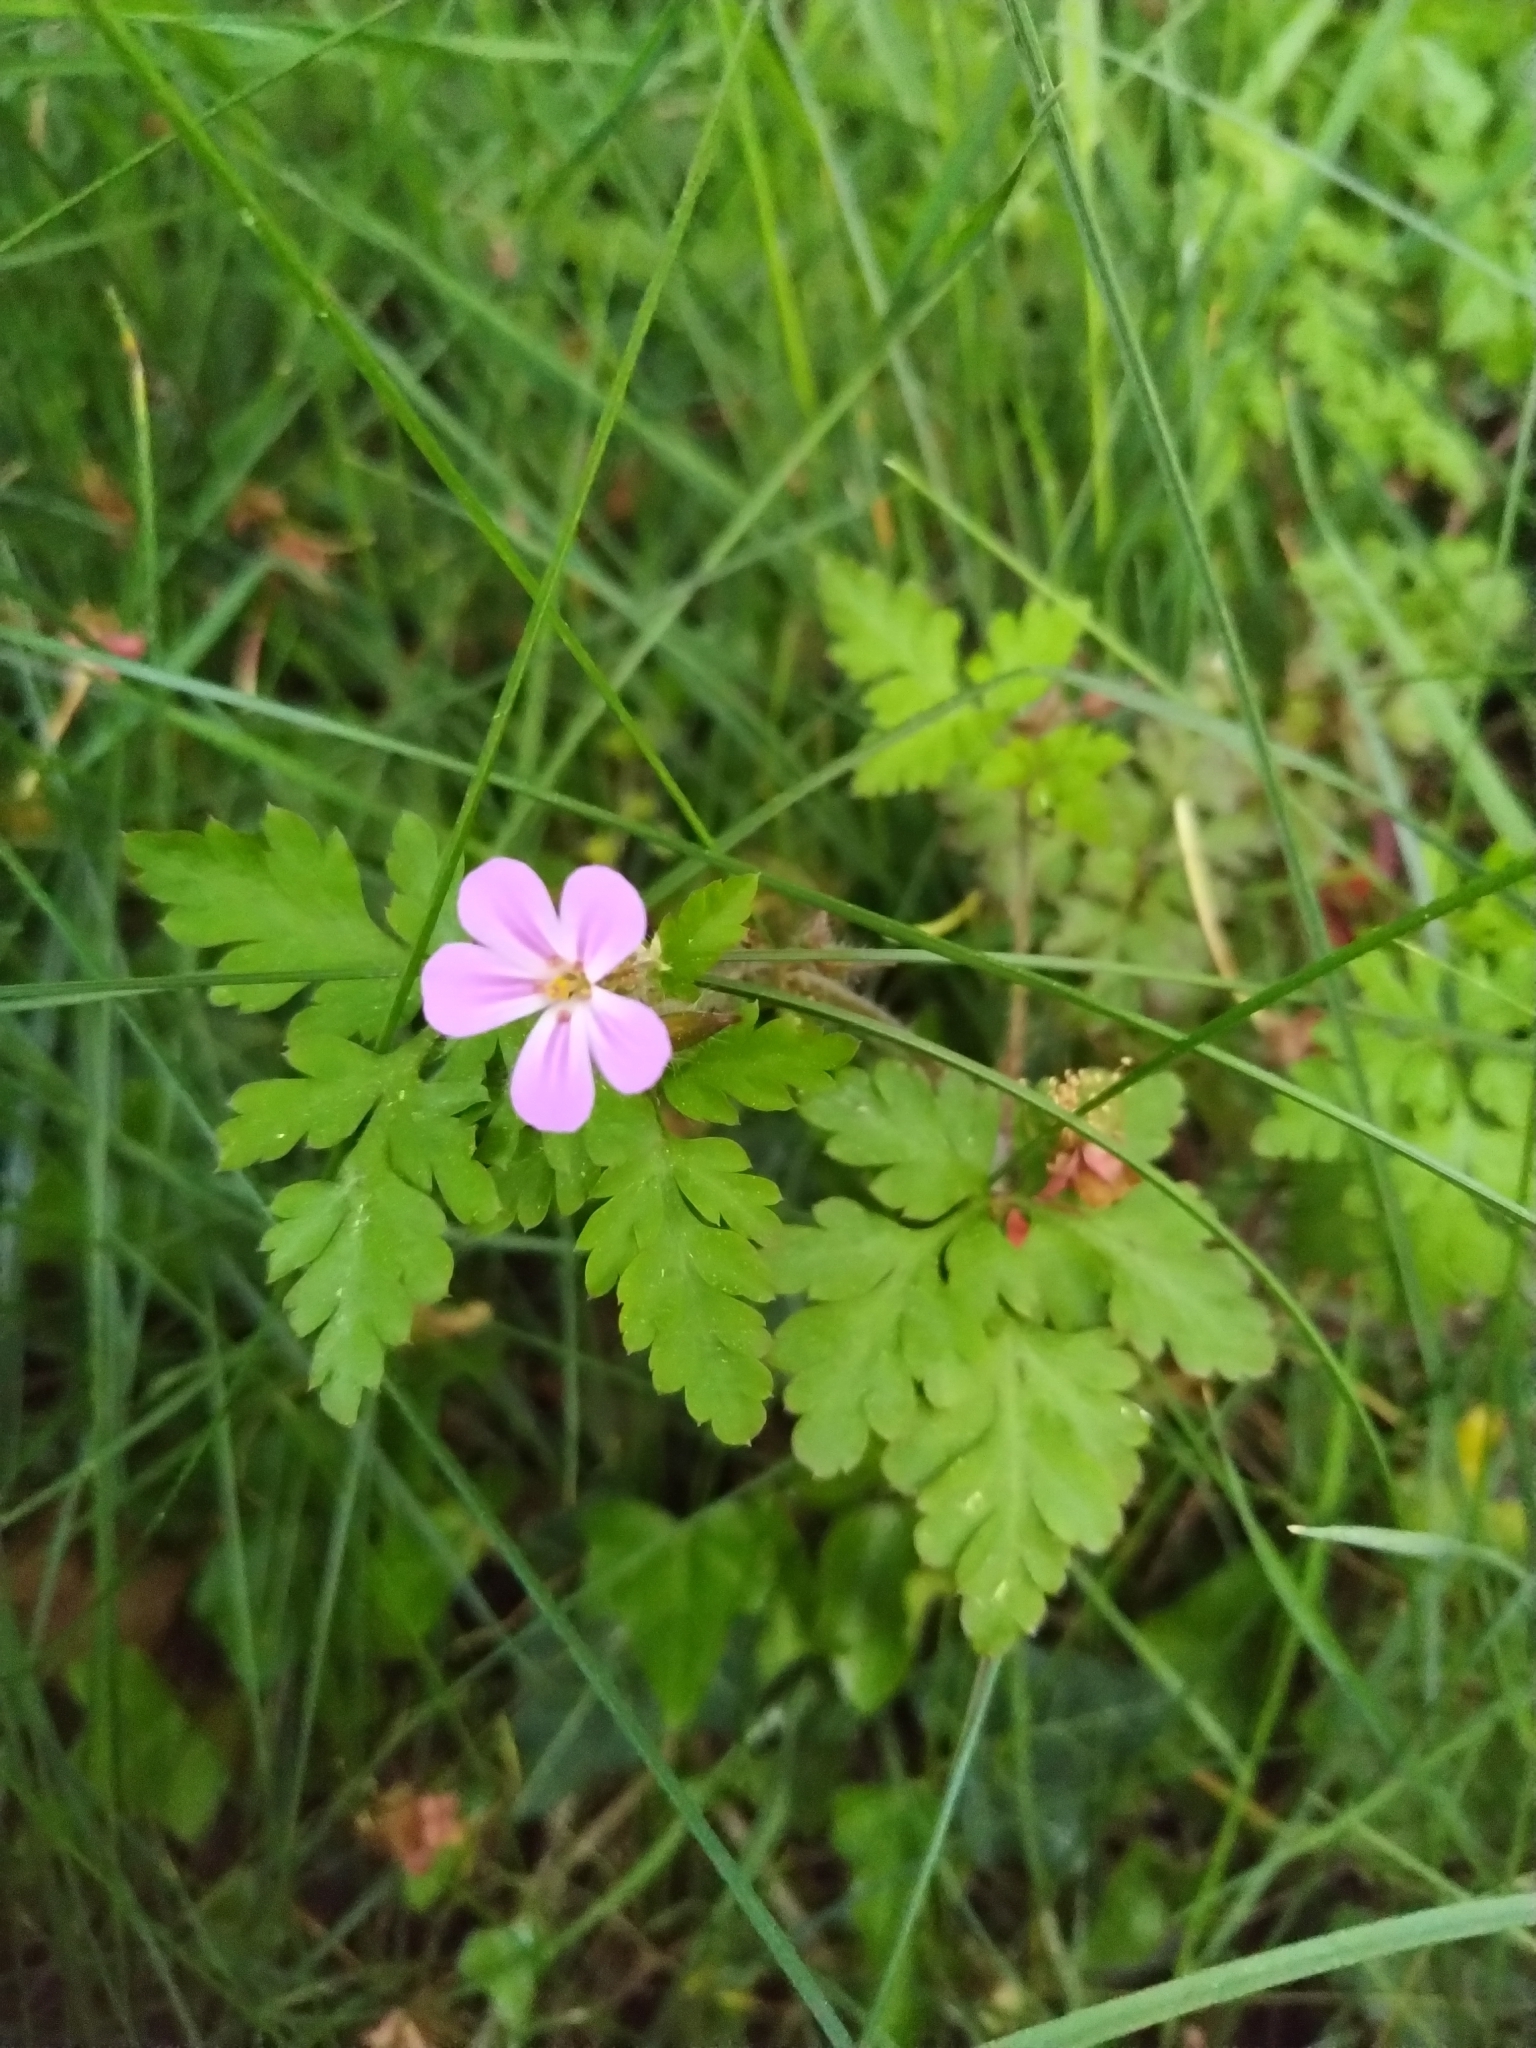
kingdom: Plantae
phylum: Tracheophyta
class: Magnoliopsida
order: Geraniales
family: Geraniaceae
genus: Geranium
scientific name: Geranium robertianum
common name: Herb-robert
